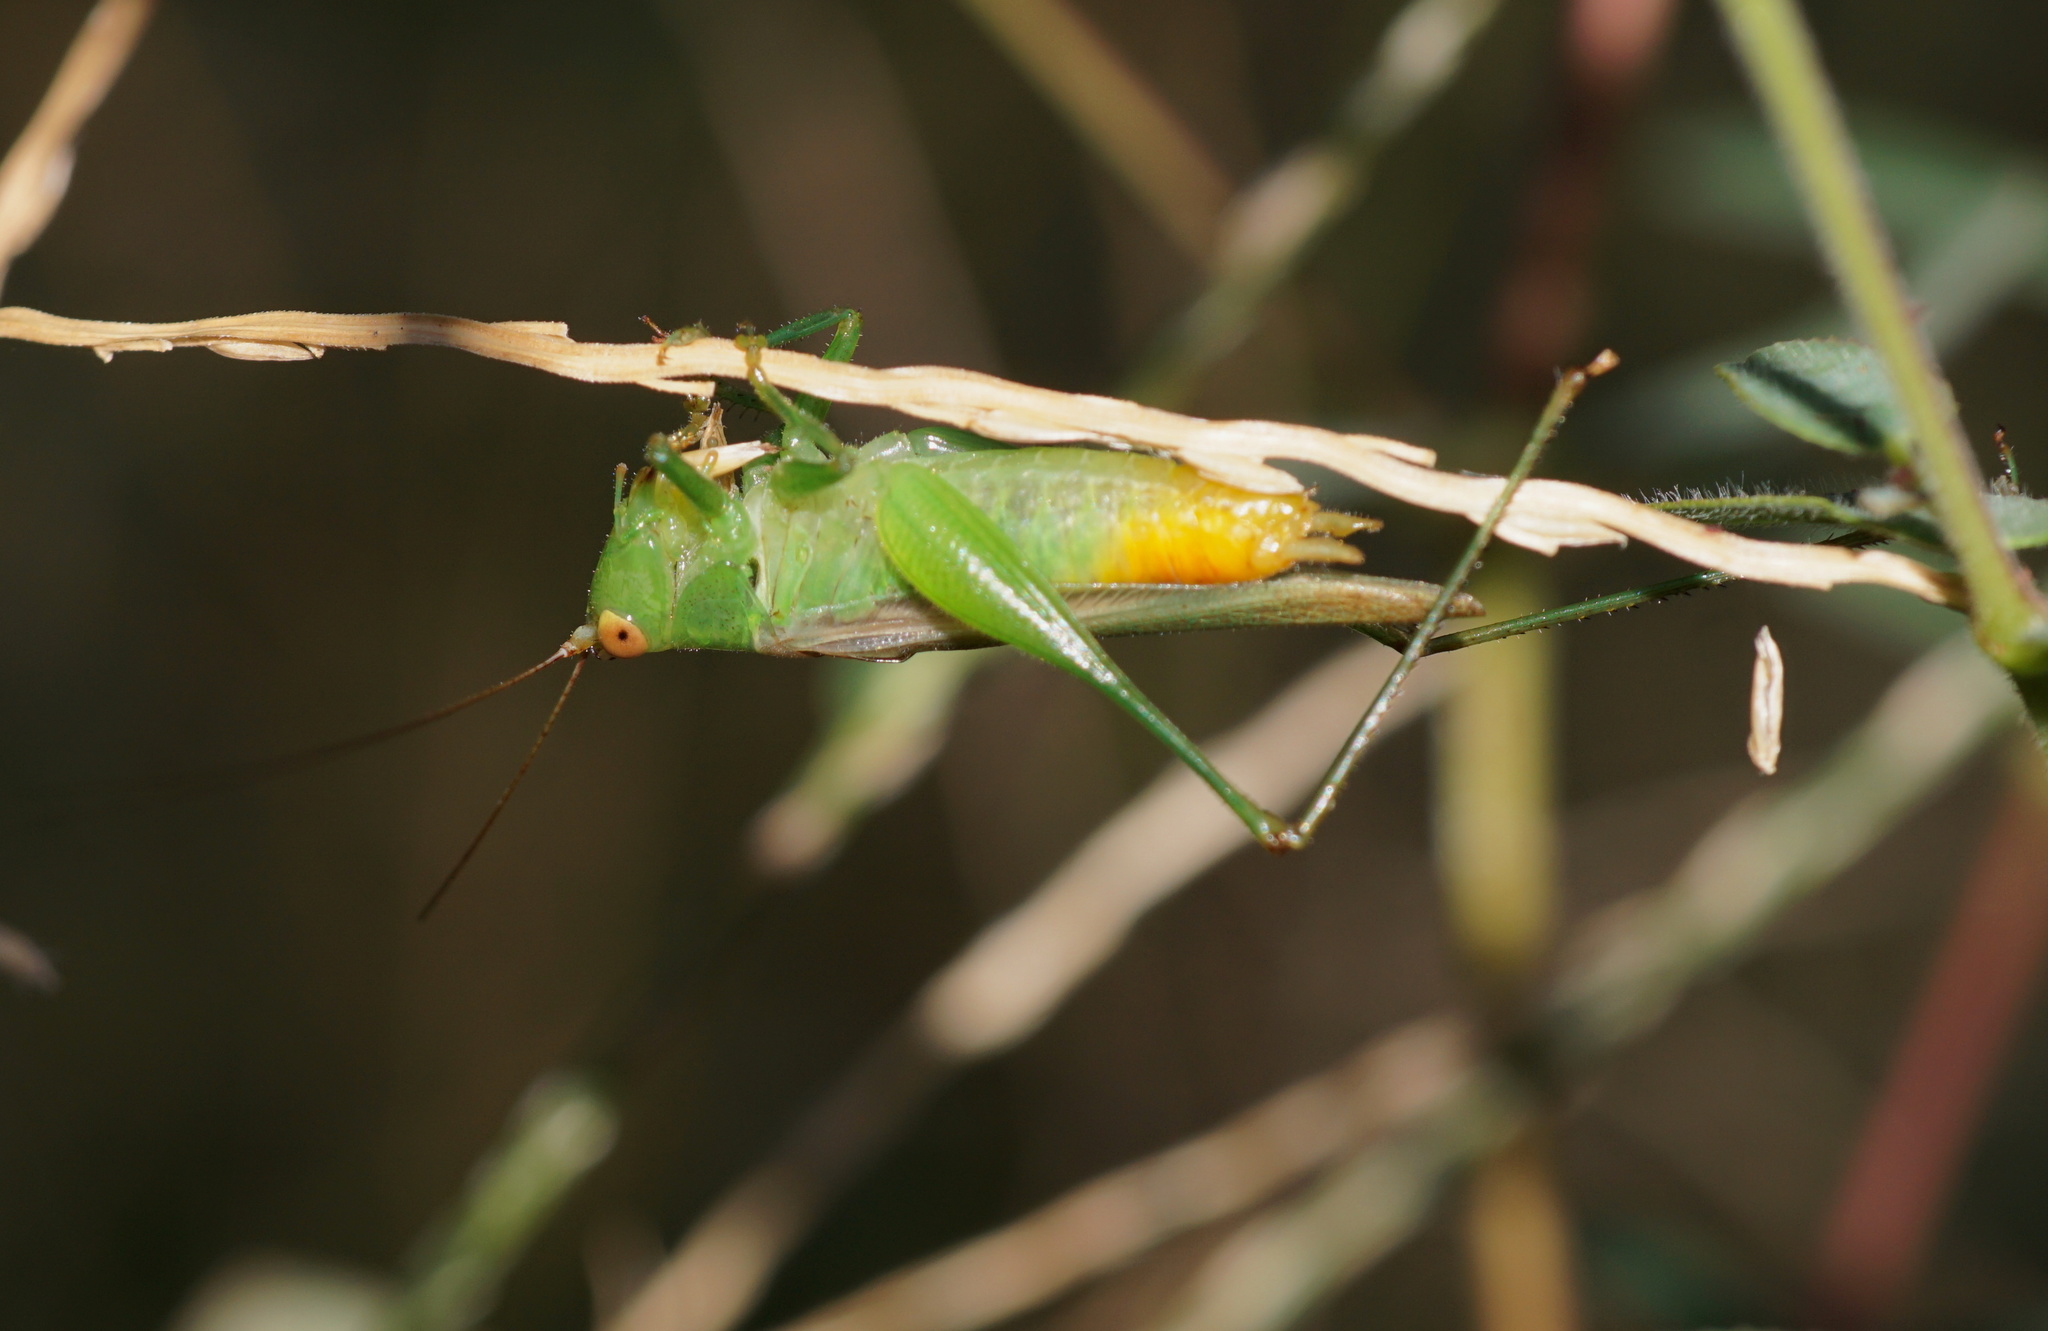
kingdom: Animalia
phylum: Arthropoda
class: Insecta
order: Orthoptera
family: Tettigoniidae
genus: Conocephalus
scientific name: Conocephalus cinereus
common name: Caribbean meadow katydid
